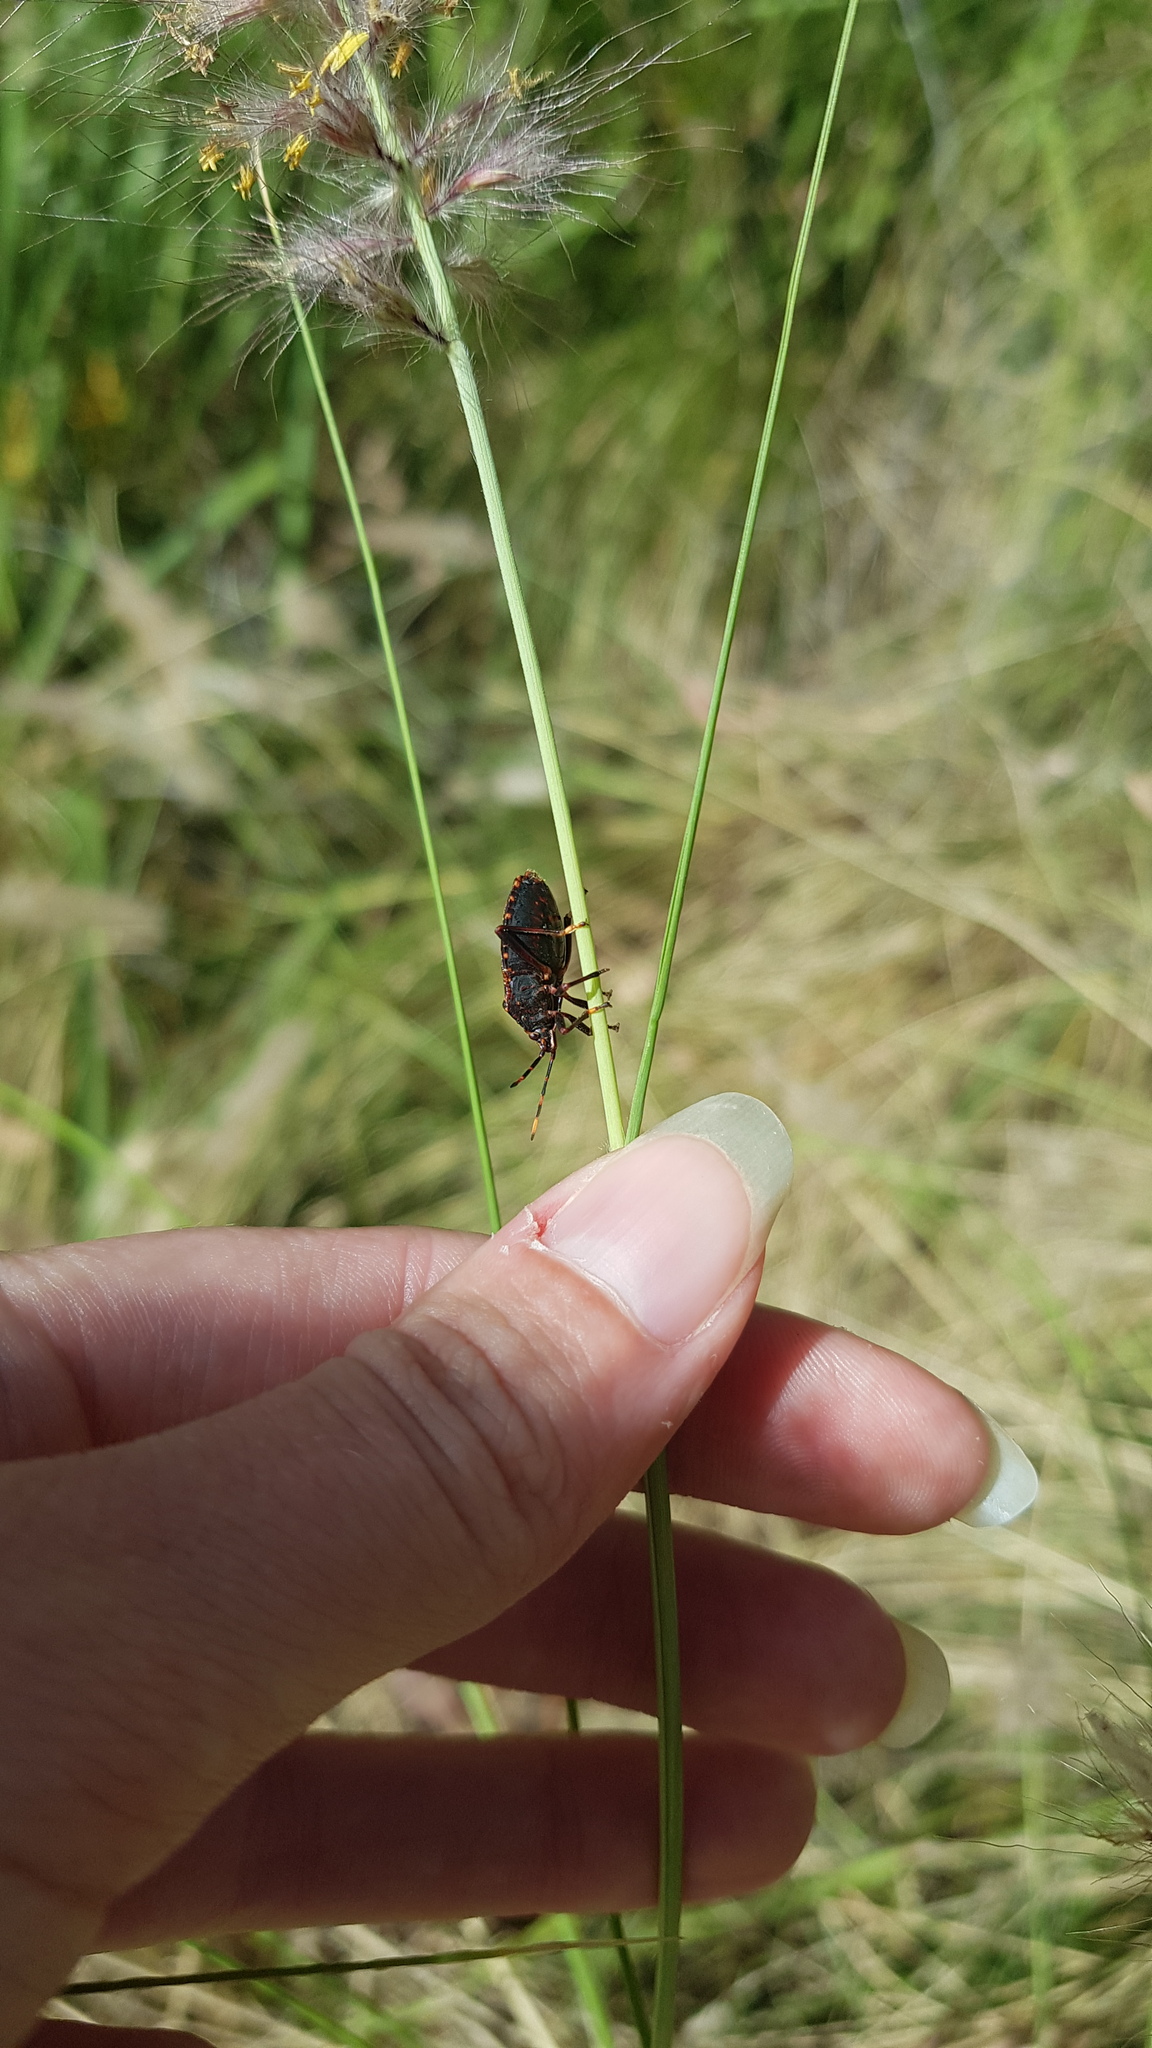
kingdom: Animalia
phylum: Arthropoda
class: Insecta
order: Hemiptera
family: Pentatomidae
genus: Notius
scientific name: Notius
